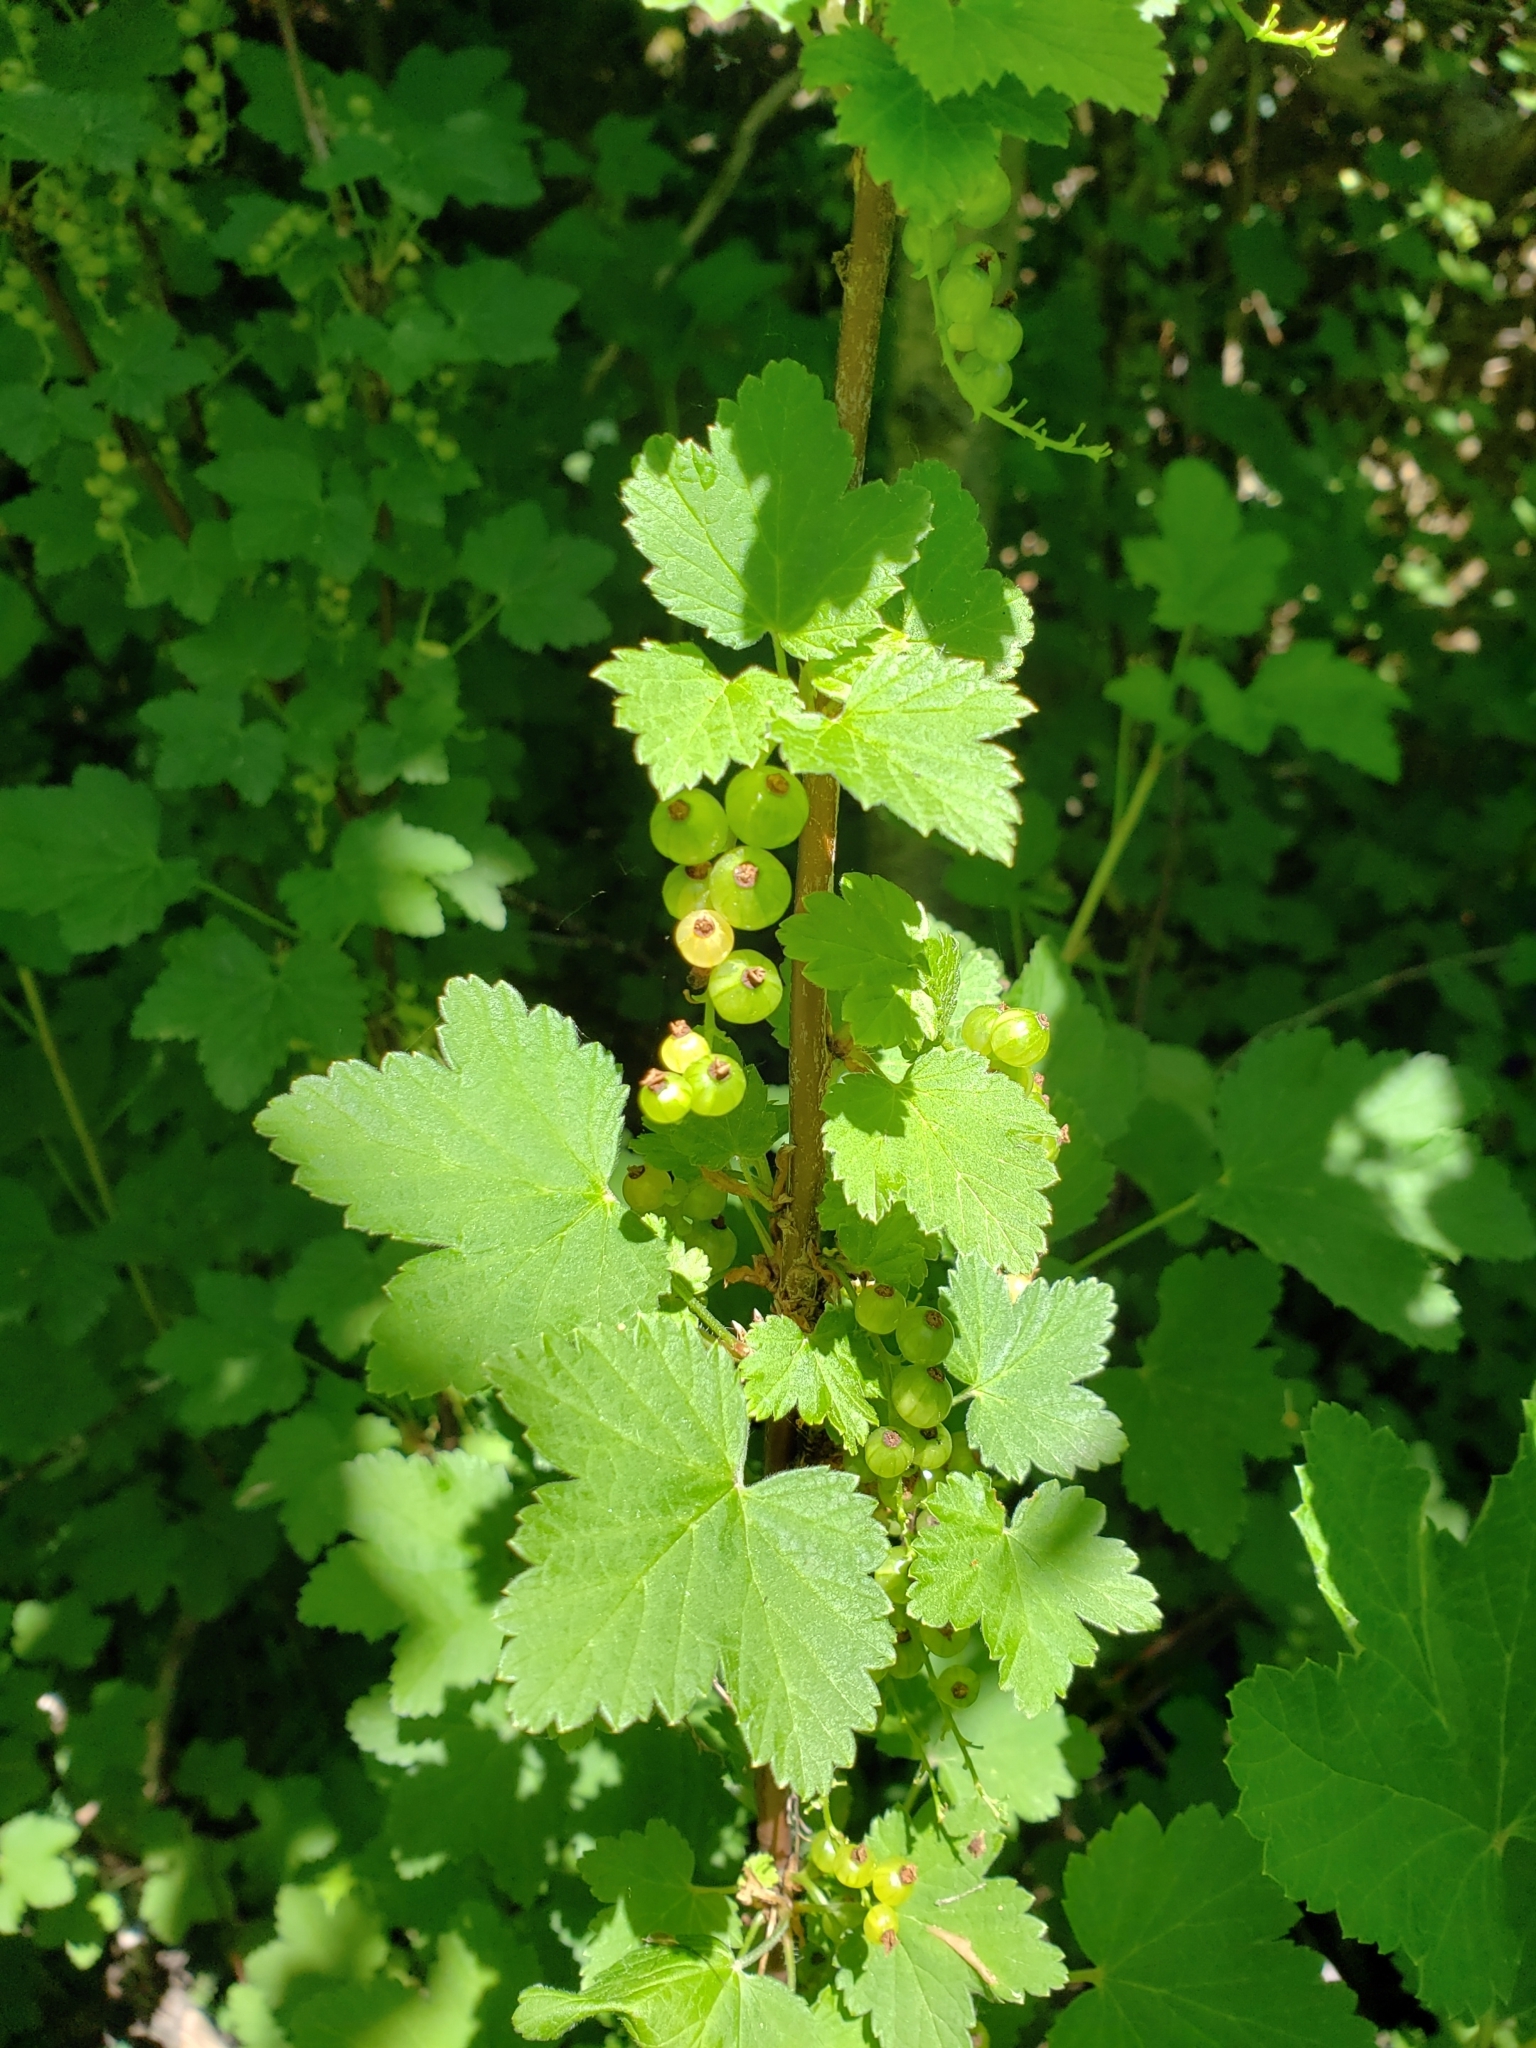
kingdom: Plantae
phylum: Tracheophyta
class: Magnoliopsida
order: Saxifragales
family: Grossulariaceae
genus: Ribes
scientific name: Ribes americanum
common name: American black currant
